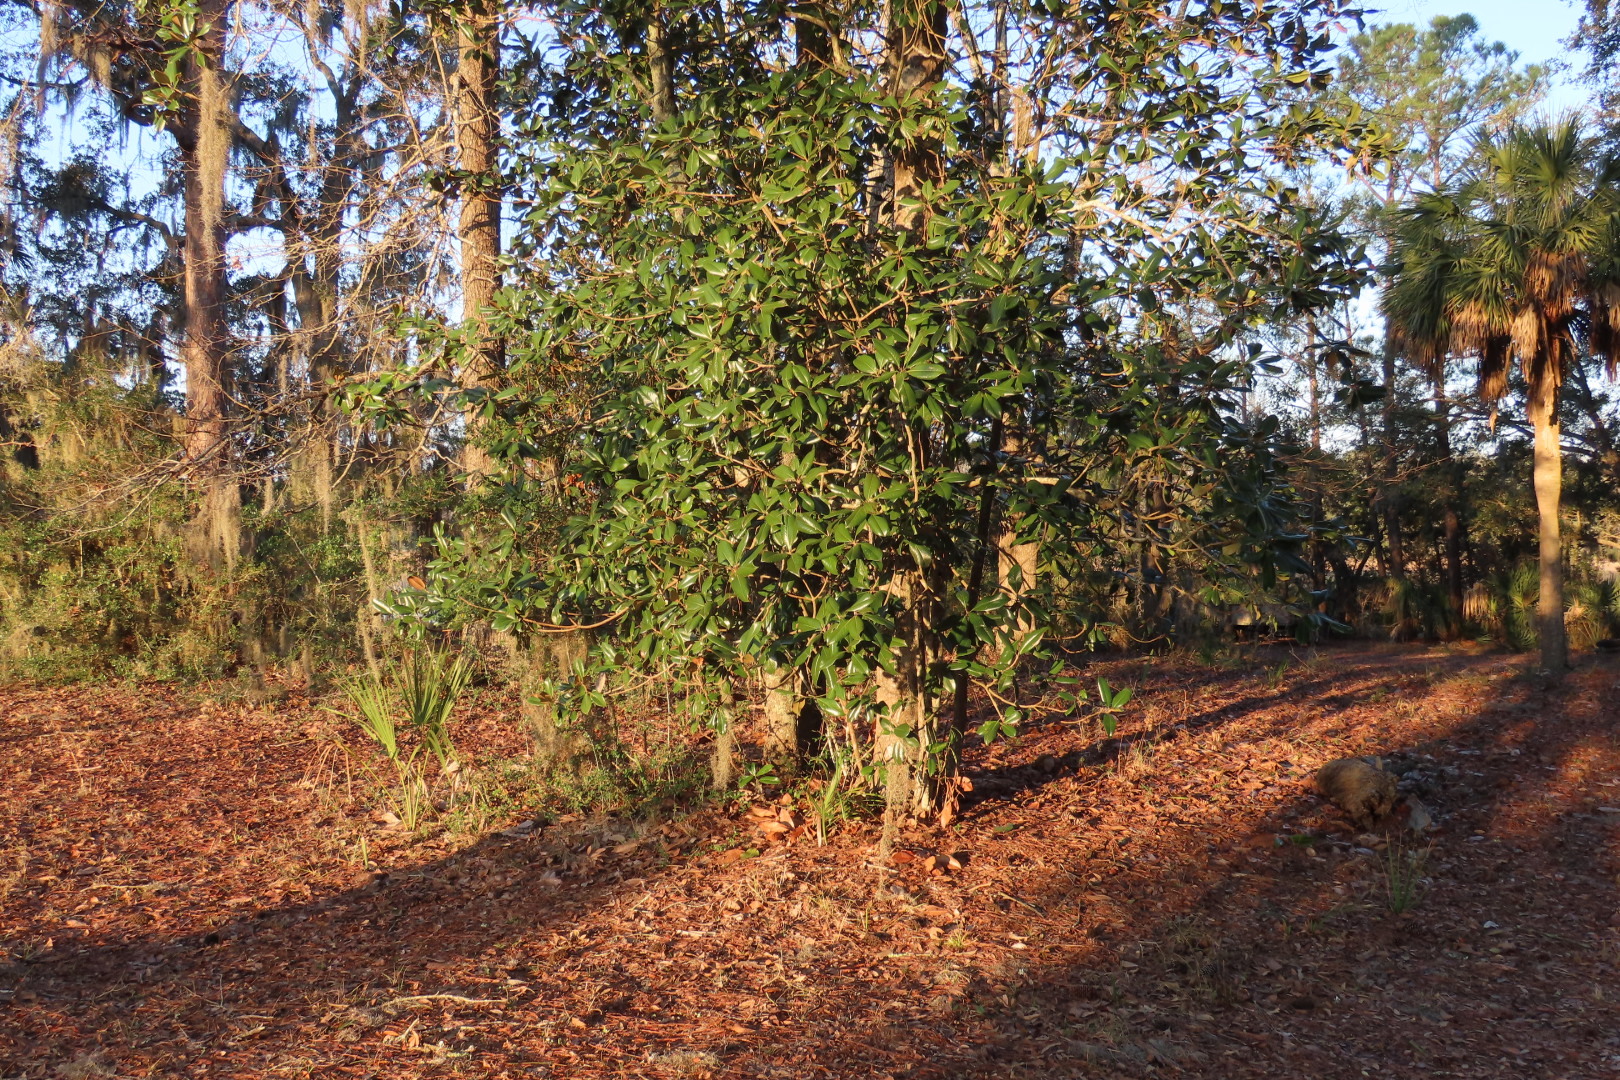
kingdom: Plantae
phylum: Tracheophyta
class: Magnoliopsida
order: Magnoliales
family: Magnoliaceae
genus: Magnolia
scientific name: Magnolia grandiflora
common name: Southern magnolia
